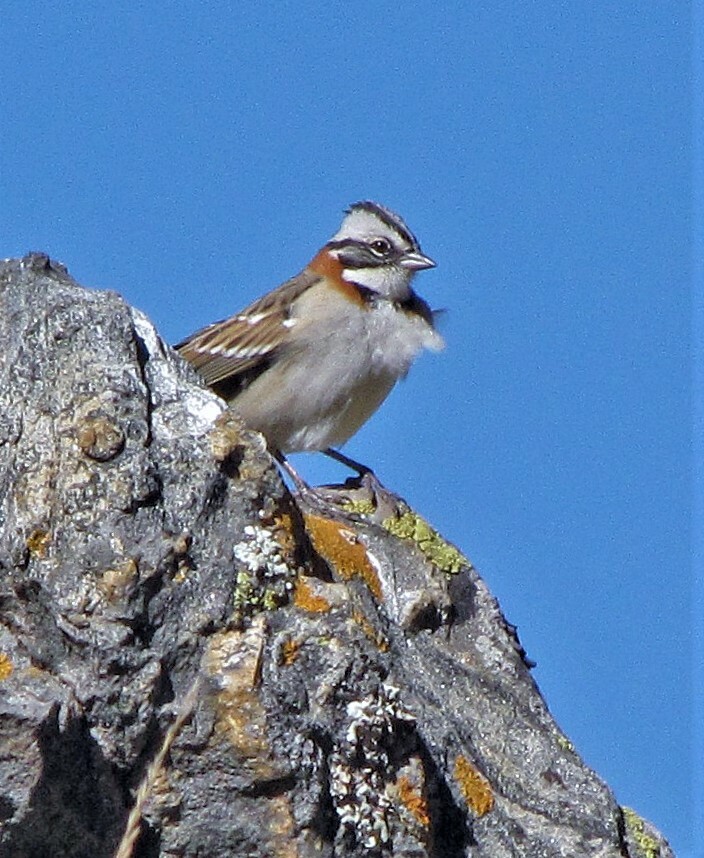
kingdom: Animalia
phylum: Chordata
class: Aves
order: Passeriformes
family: Passerellidae
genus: Zonotrichia
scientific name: Zonotrichia capensis
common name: Rufous-collared sparrow
